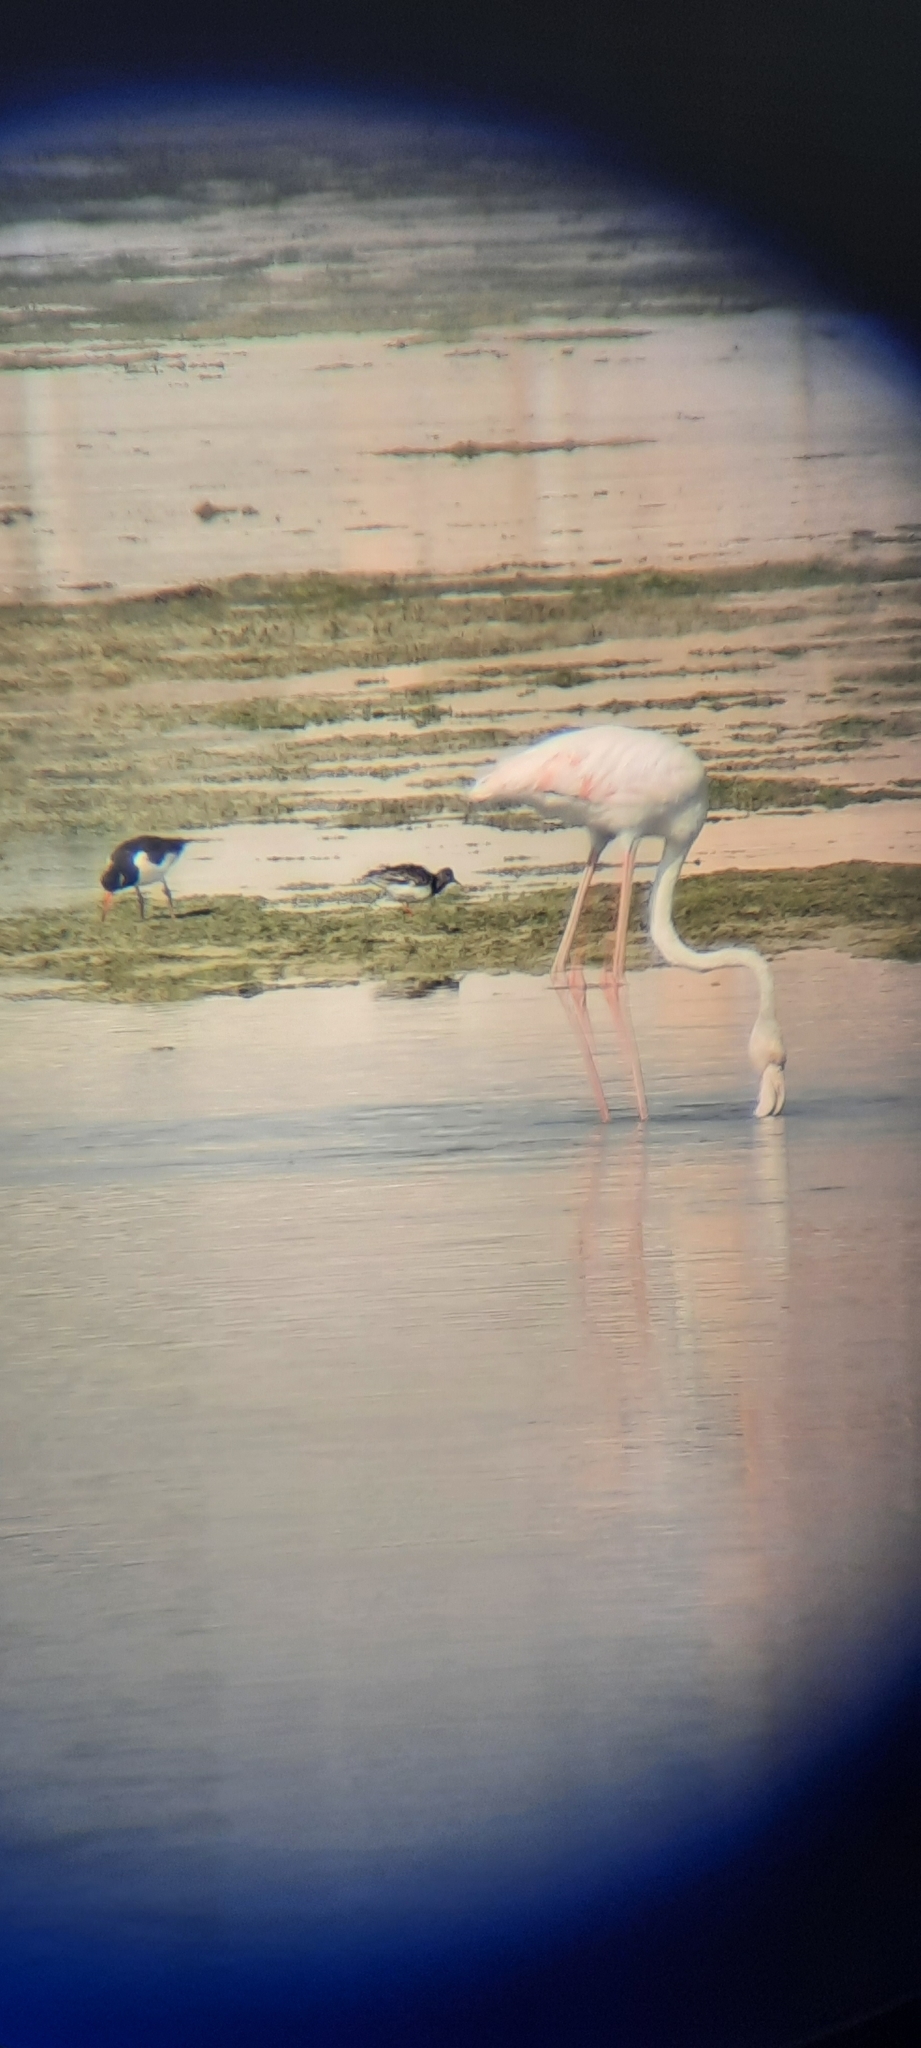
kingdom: Animalia
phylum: Chordata
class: Aves
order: Charadriiformes
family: Scolopacidae
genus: Arenaria
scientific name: Arenaria interpres
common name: Ruddy turnstone
